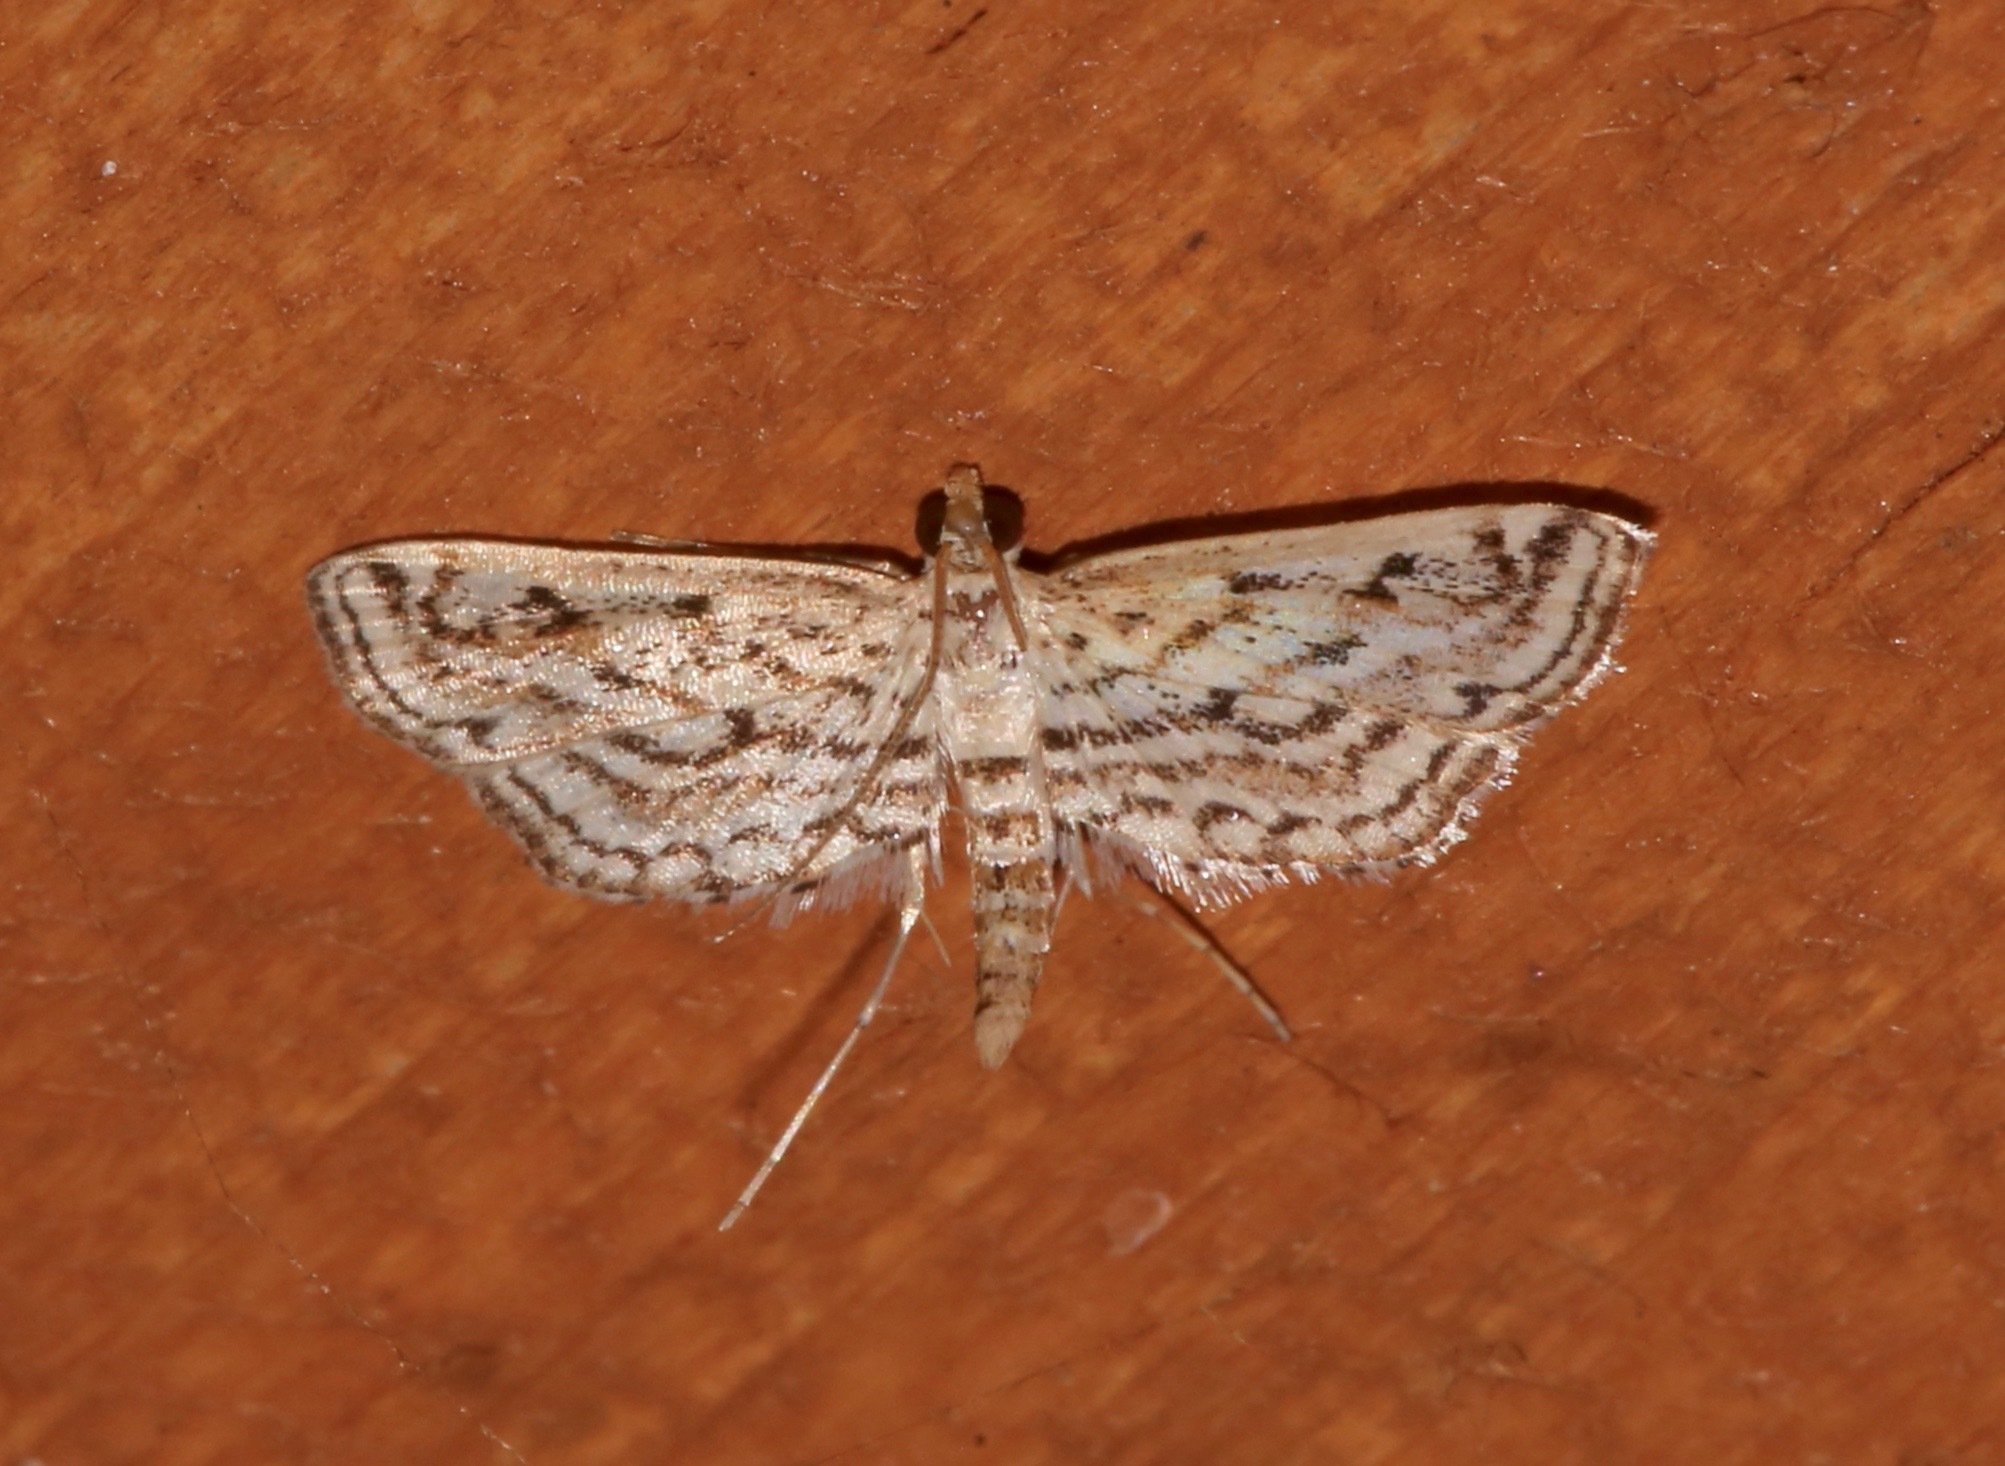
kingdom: Animalia
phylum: Arthropoda
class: Insecta
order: Lepidoptera
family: Crambidae
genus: Parapoynx
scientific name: Parapoynx allionealis
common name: Bladderwort casemaker
